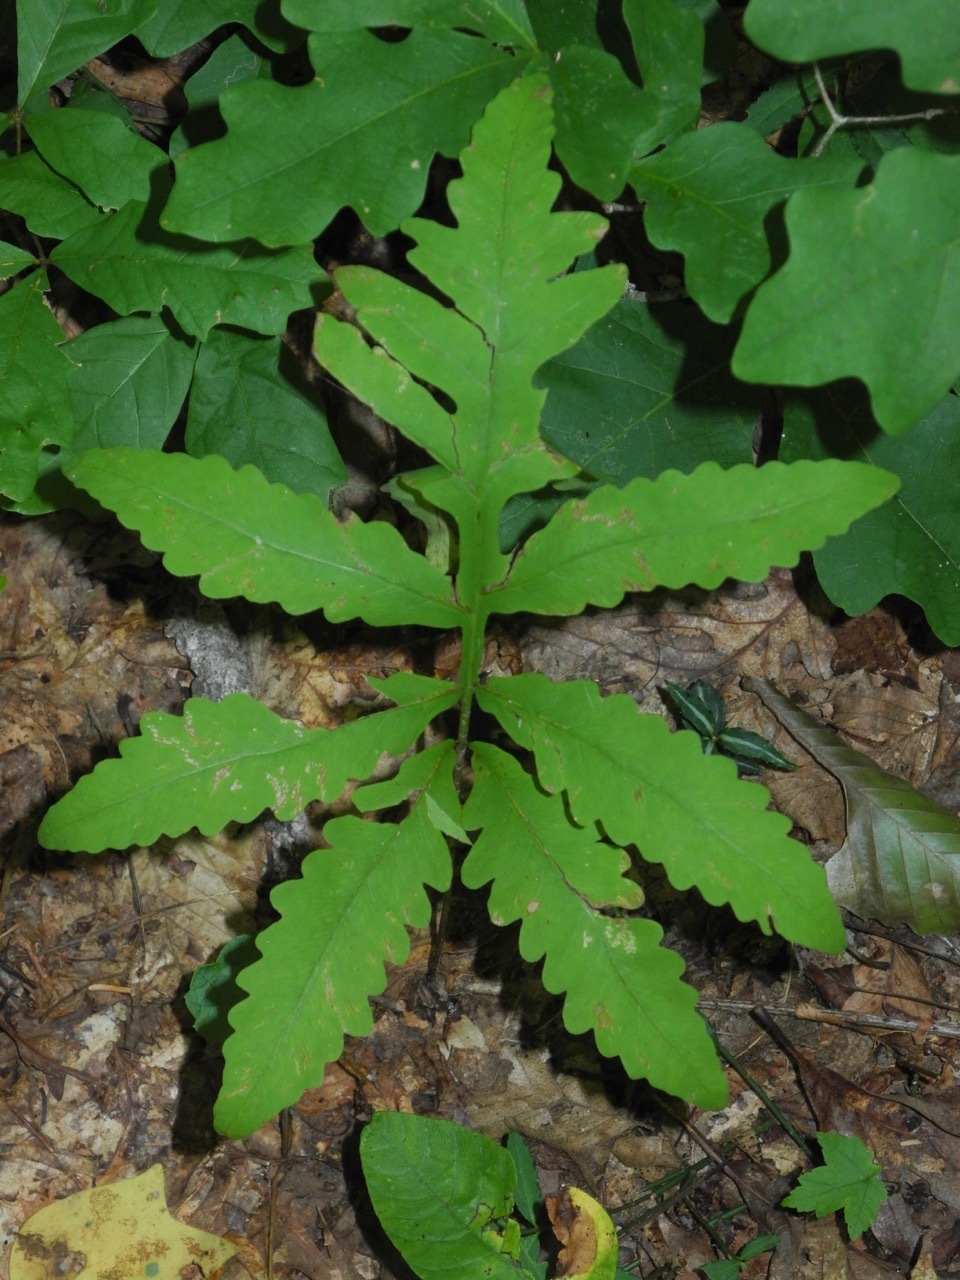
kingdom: Plantae
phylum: Tracheophyta
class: Polypodiopsida
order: Polypodiales
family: Onocleaceae
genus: Onoclea
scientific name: Onoclea sensibilis
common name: Sensitive fern
